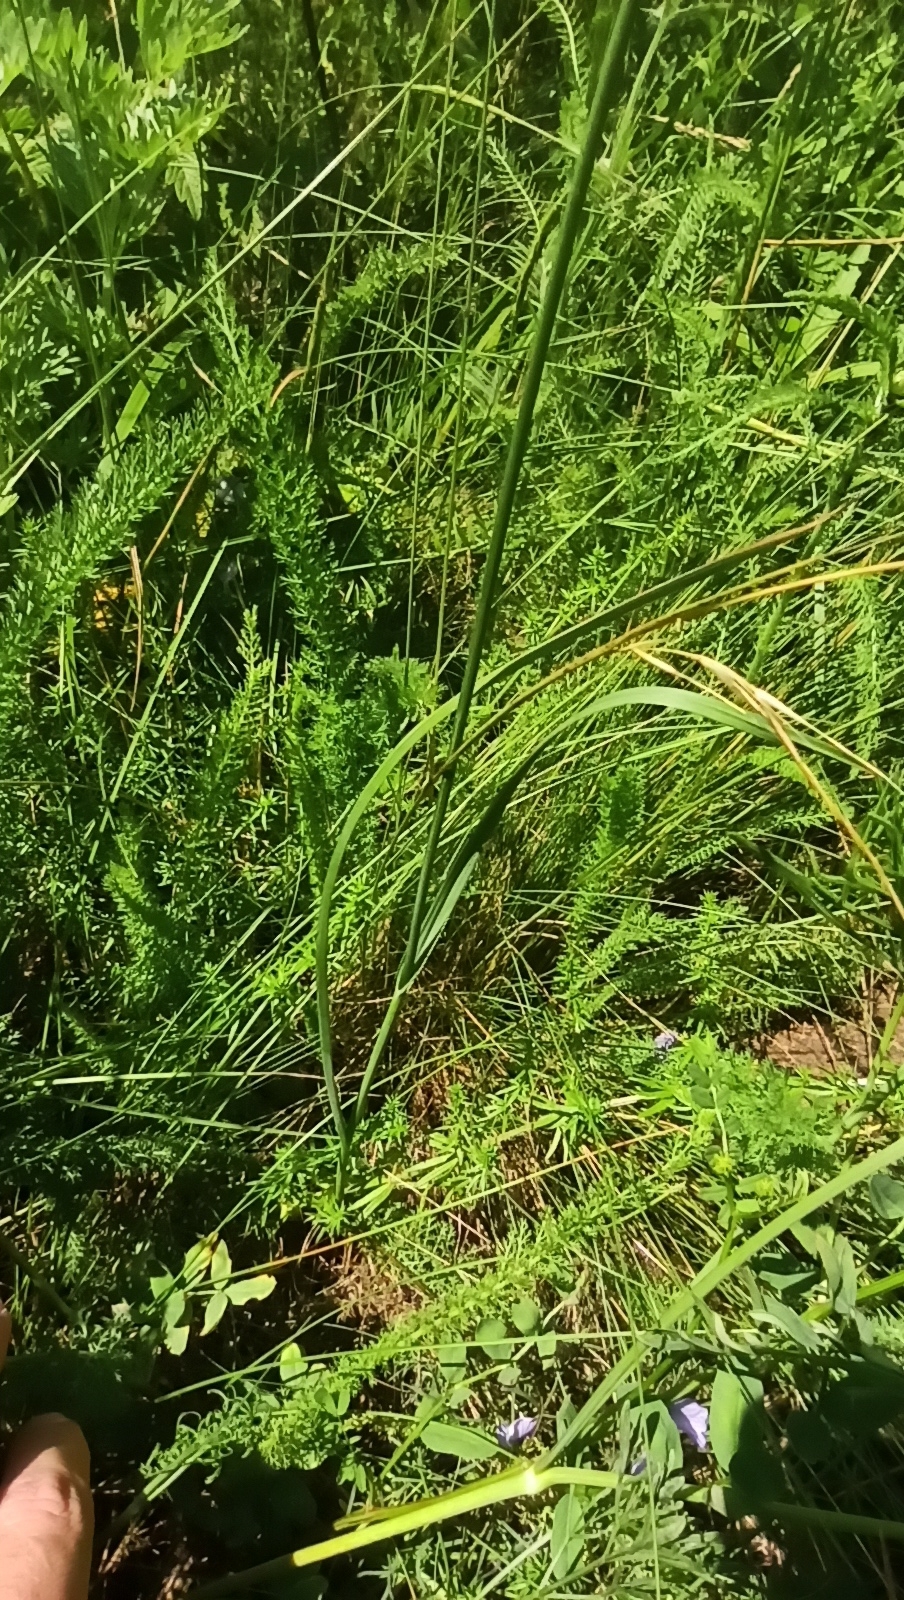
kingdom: Plantae
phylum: Tracheophyta
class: Liliopsida
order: Asparagales
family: Amaryllidaceae
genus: Allium
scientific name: Allium rotundum
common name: Sand leek
